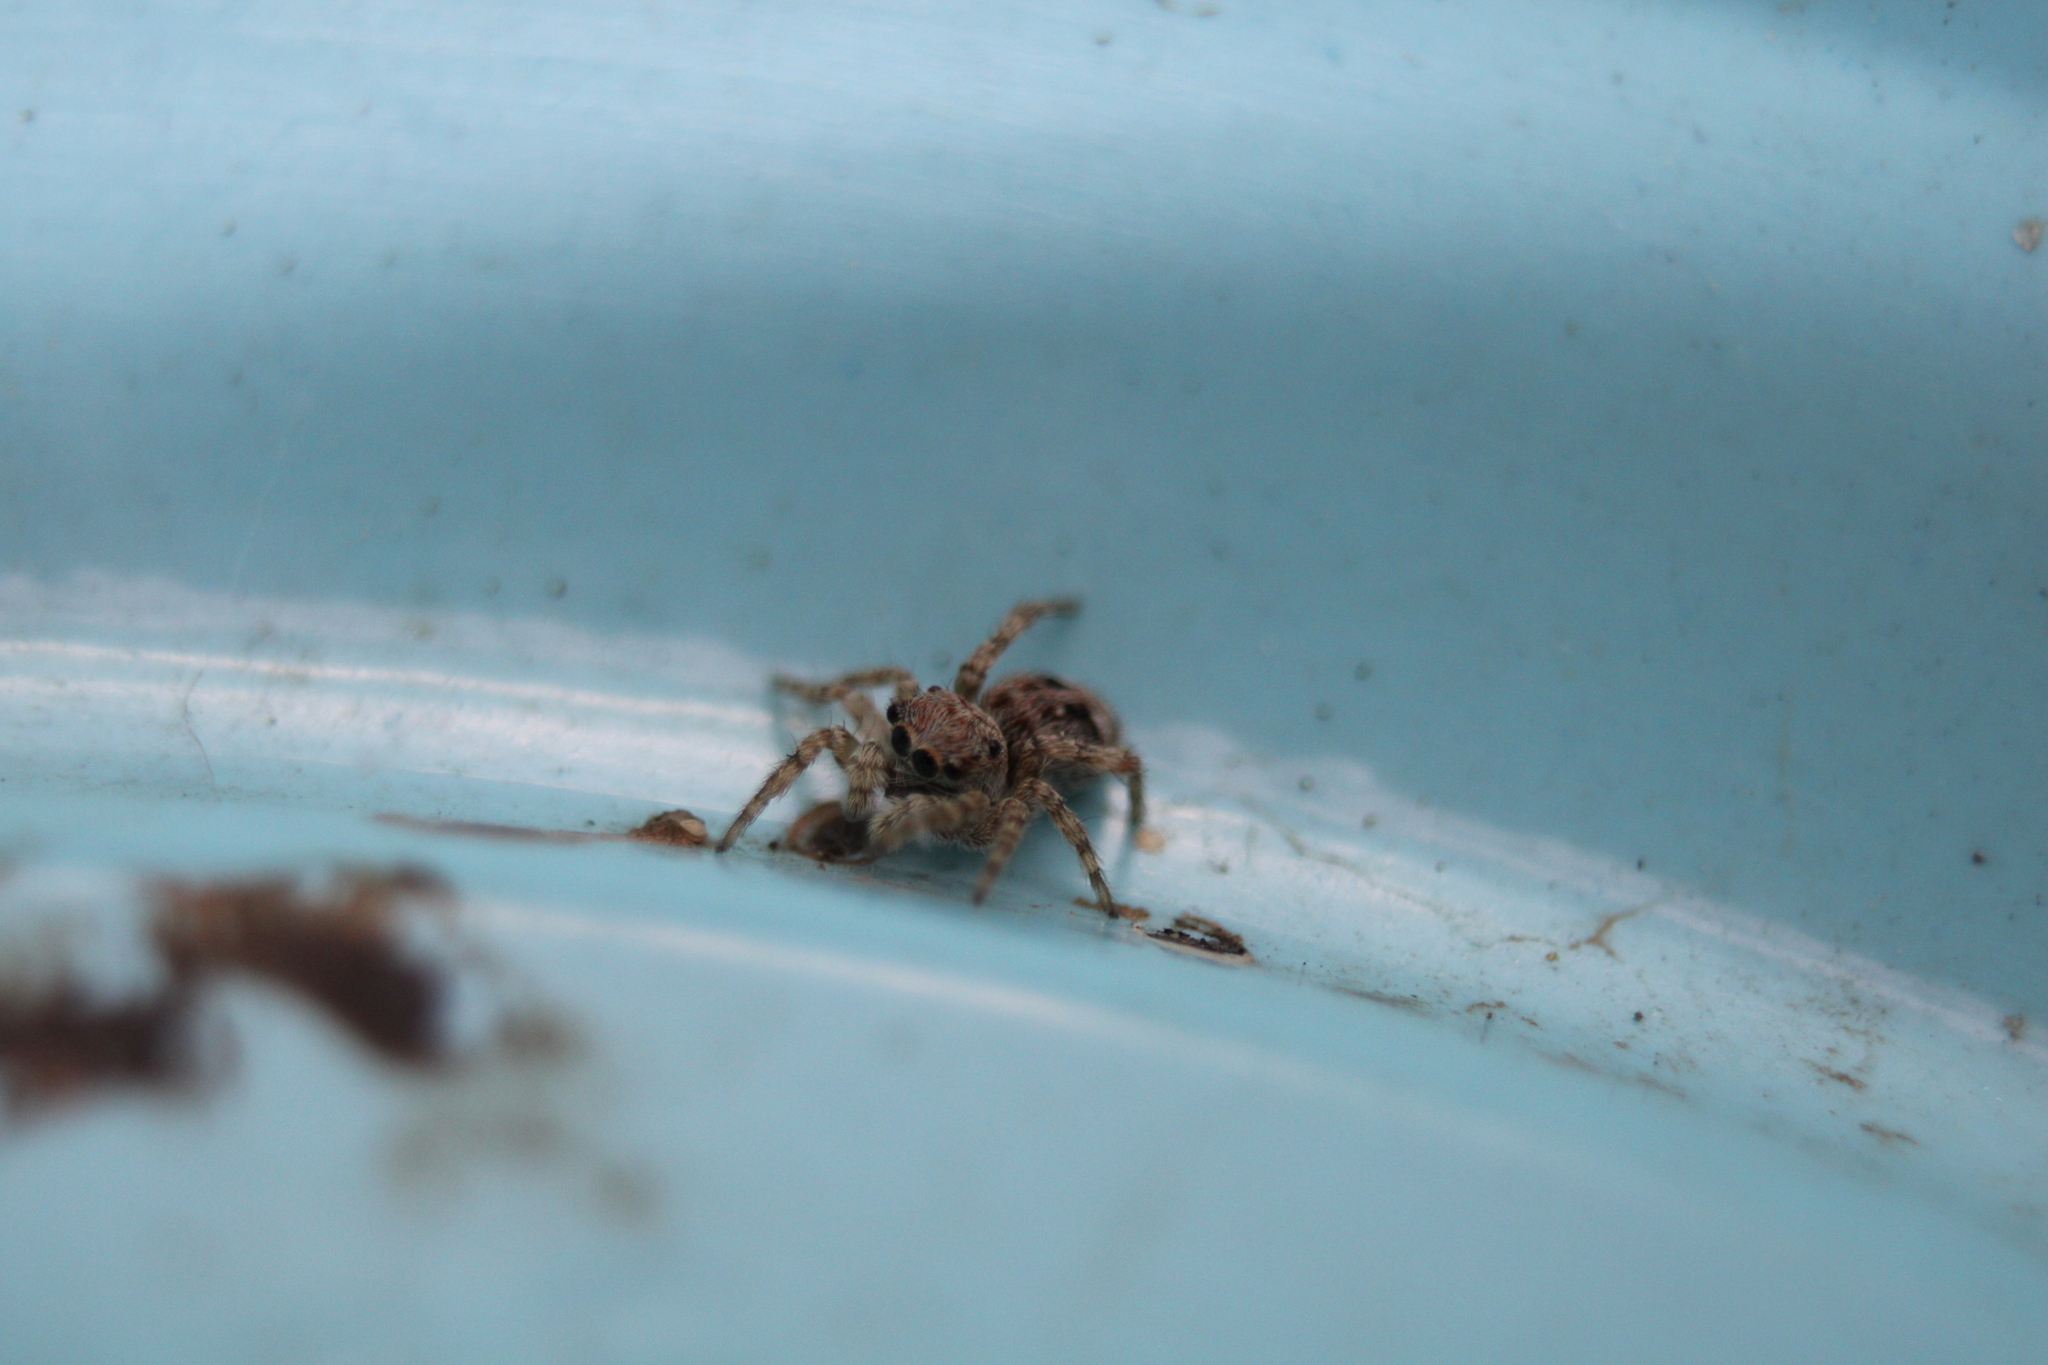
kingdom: Animalia
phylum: Arthropoda
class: Arachnida
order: Araneae
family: Salticidae
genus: Attulus
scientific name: Attulus fasciger
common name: Asiatic wall jumping spider
